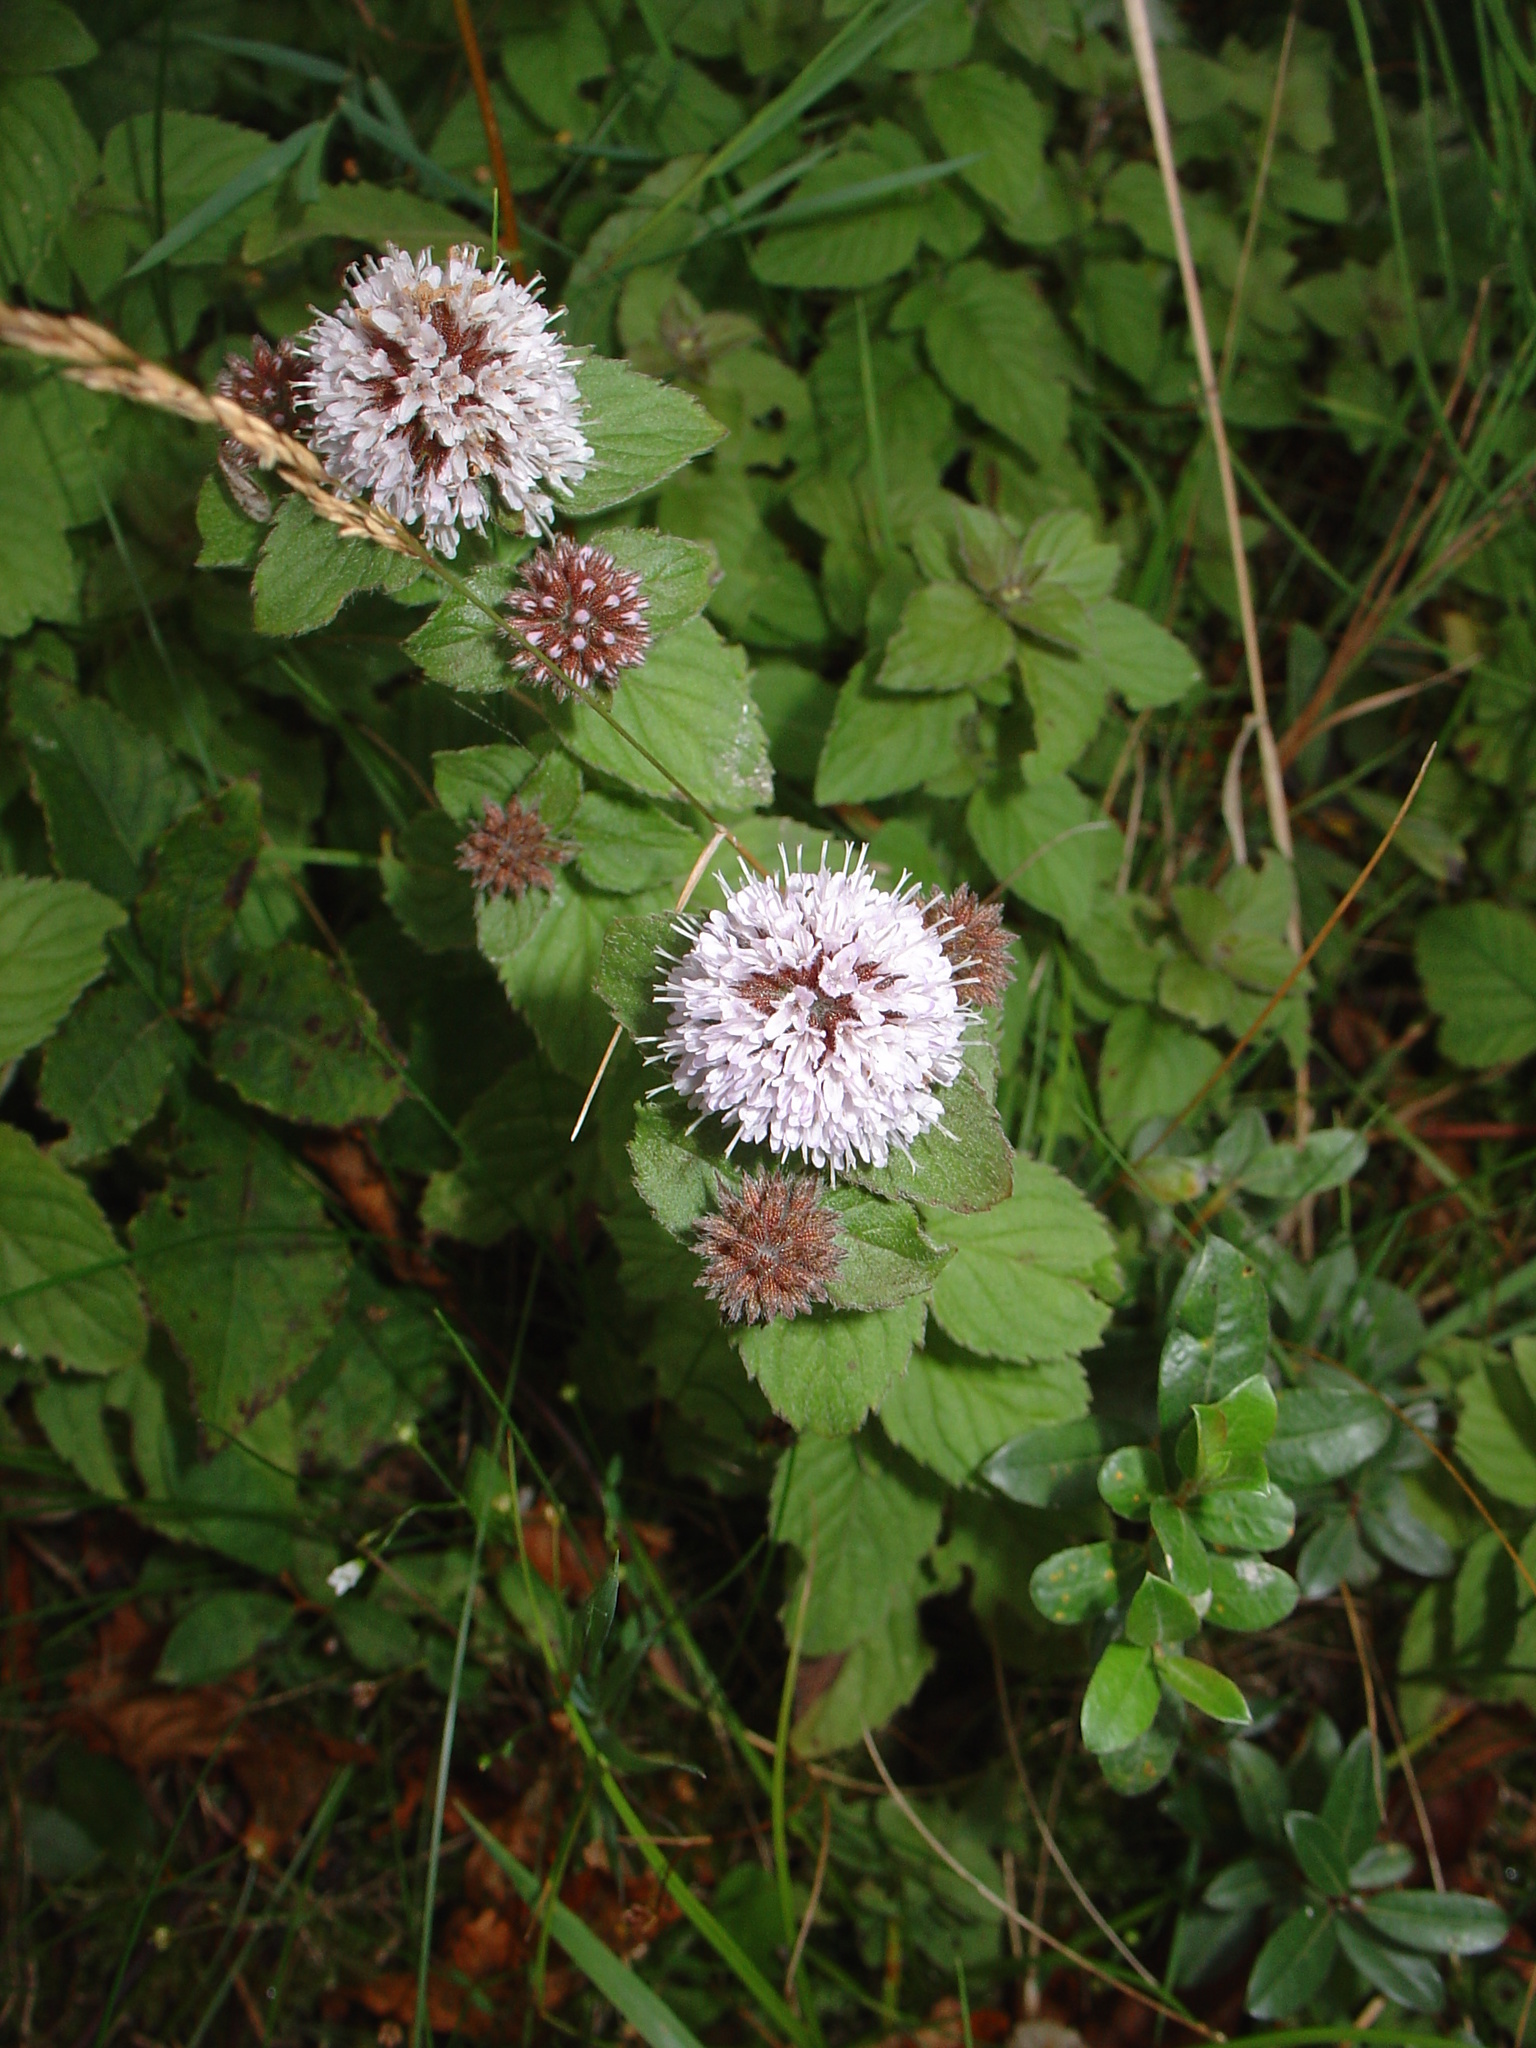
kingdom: Plantae
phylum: Tracheophyta
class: Magnoliopsida
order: Lamiales
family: Lamiaceae
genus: Mentha
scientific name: Mentha aquatica
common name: Water mint
